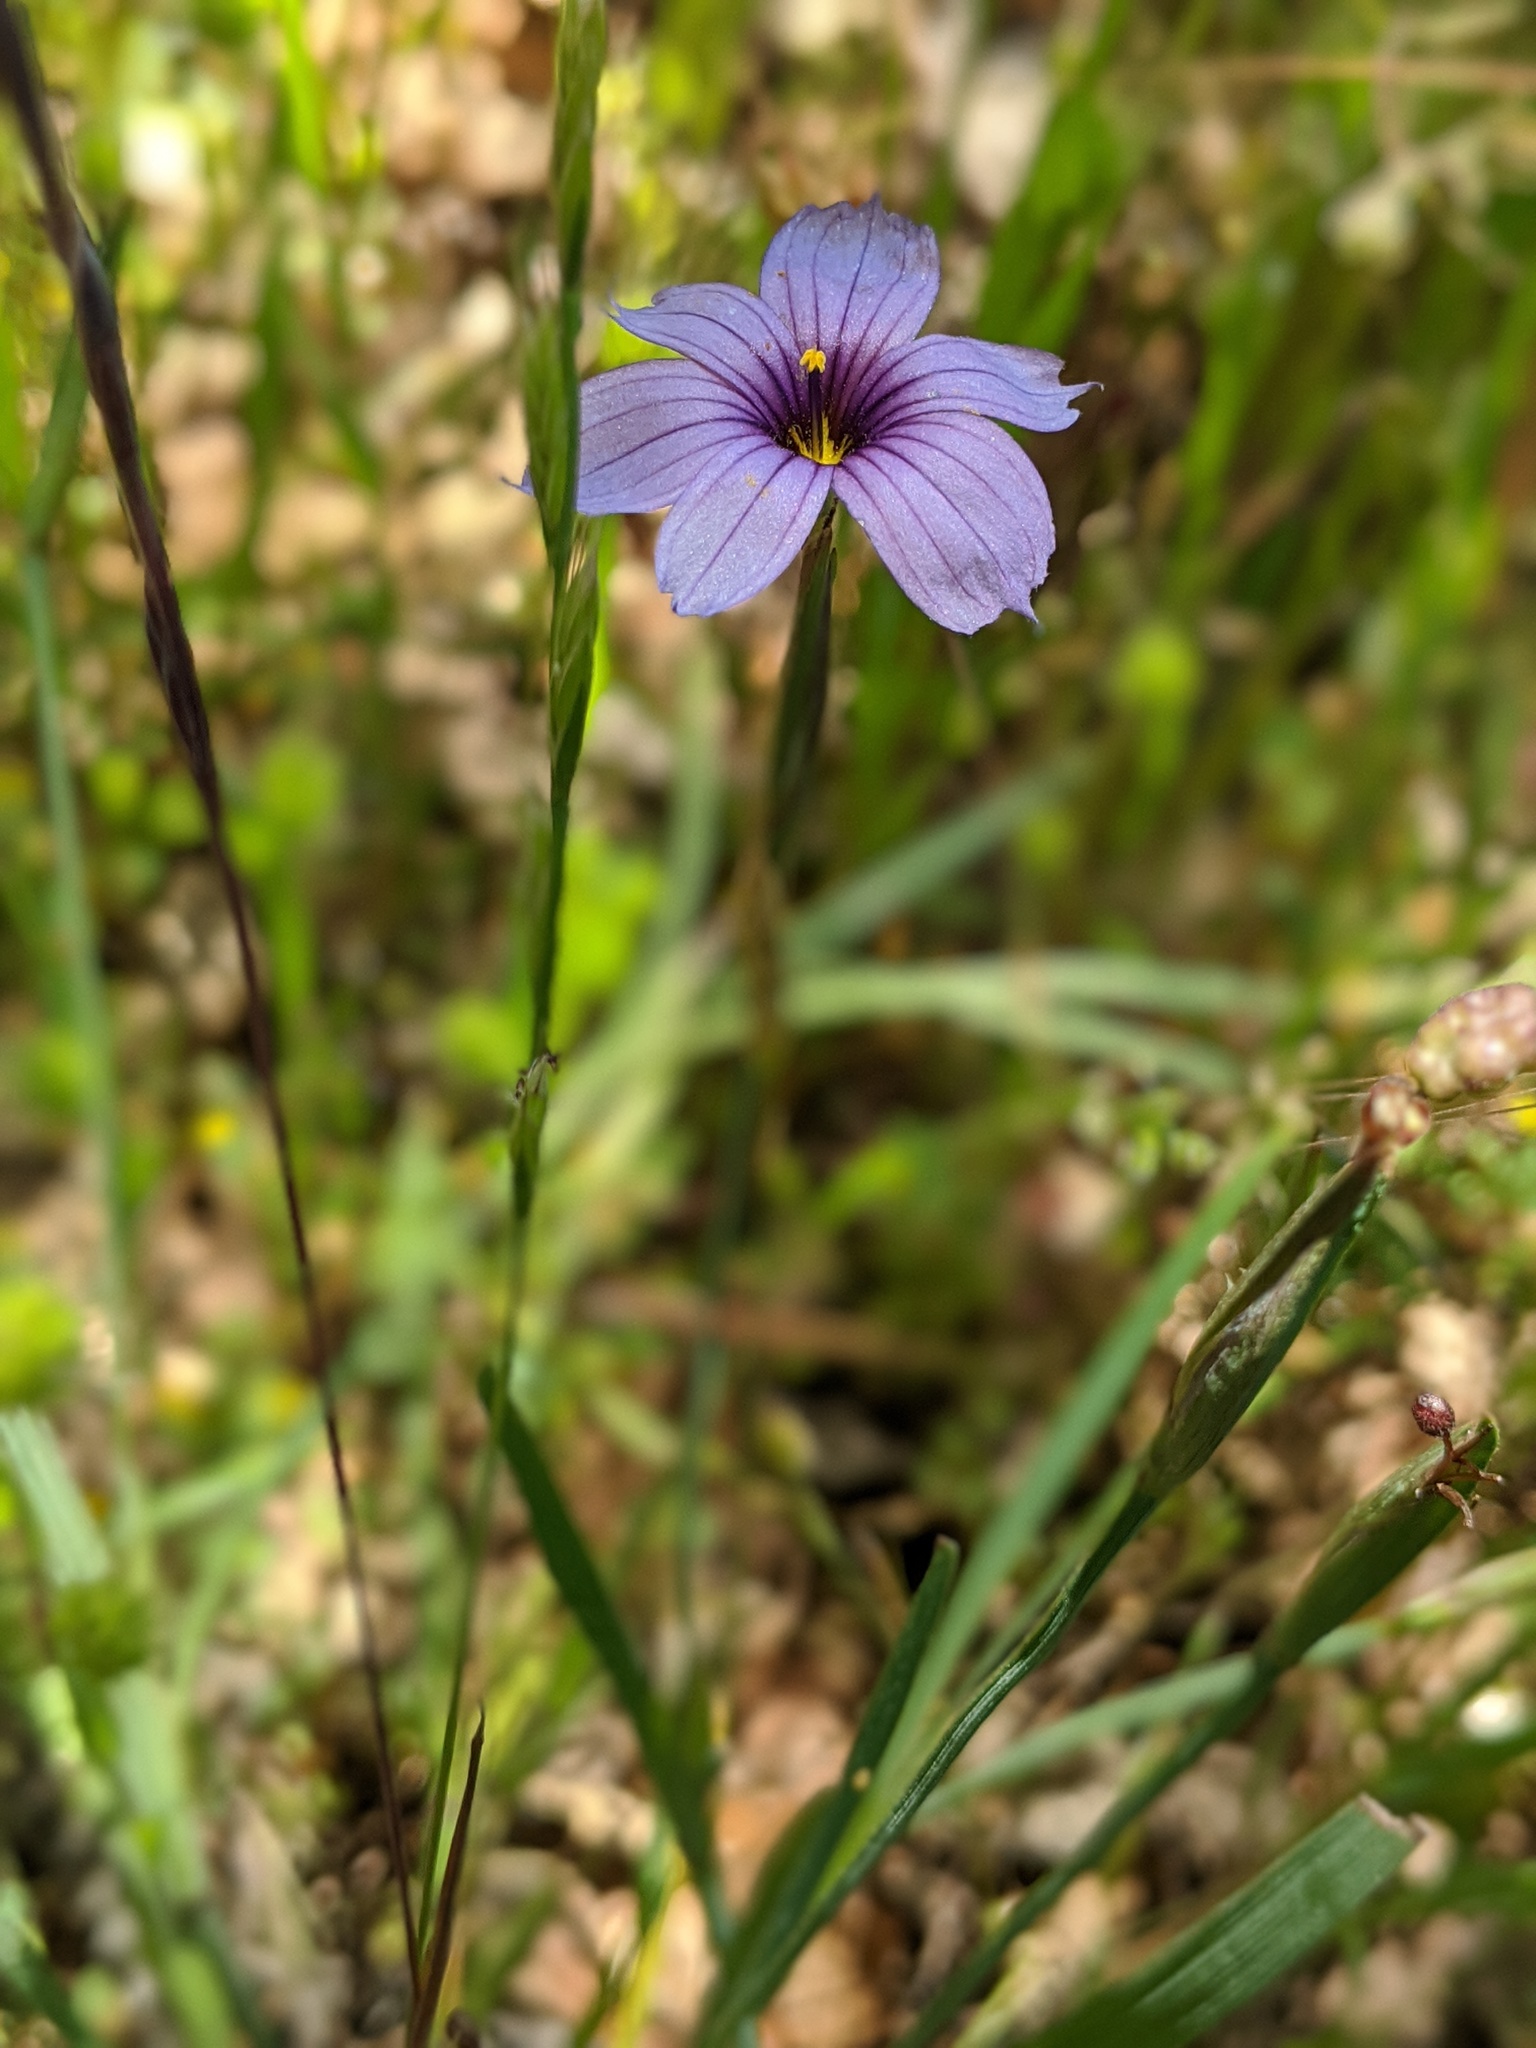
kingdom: Plantae
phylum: Tracheophyta
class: Liliopsida
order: Asparagales
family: Iridaceae
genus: Sisyrinchium
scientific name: Sisyrinchium bellum
